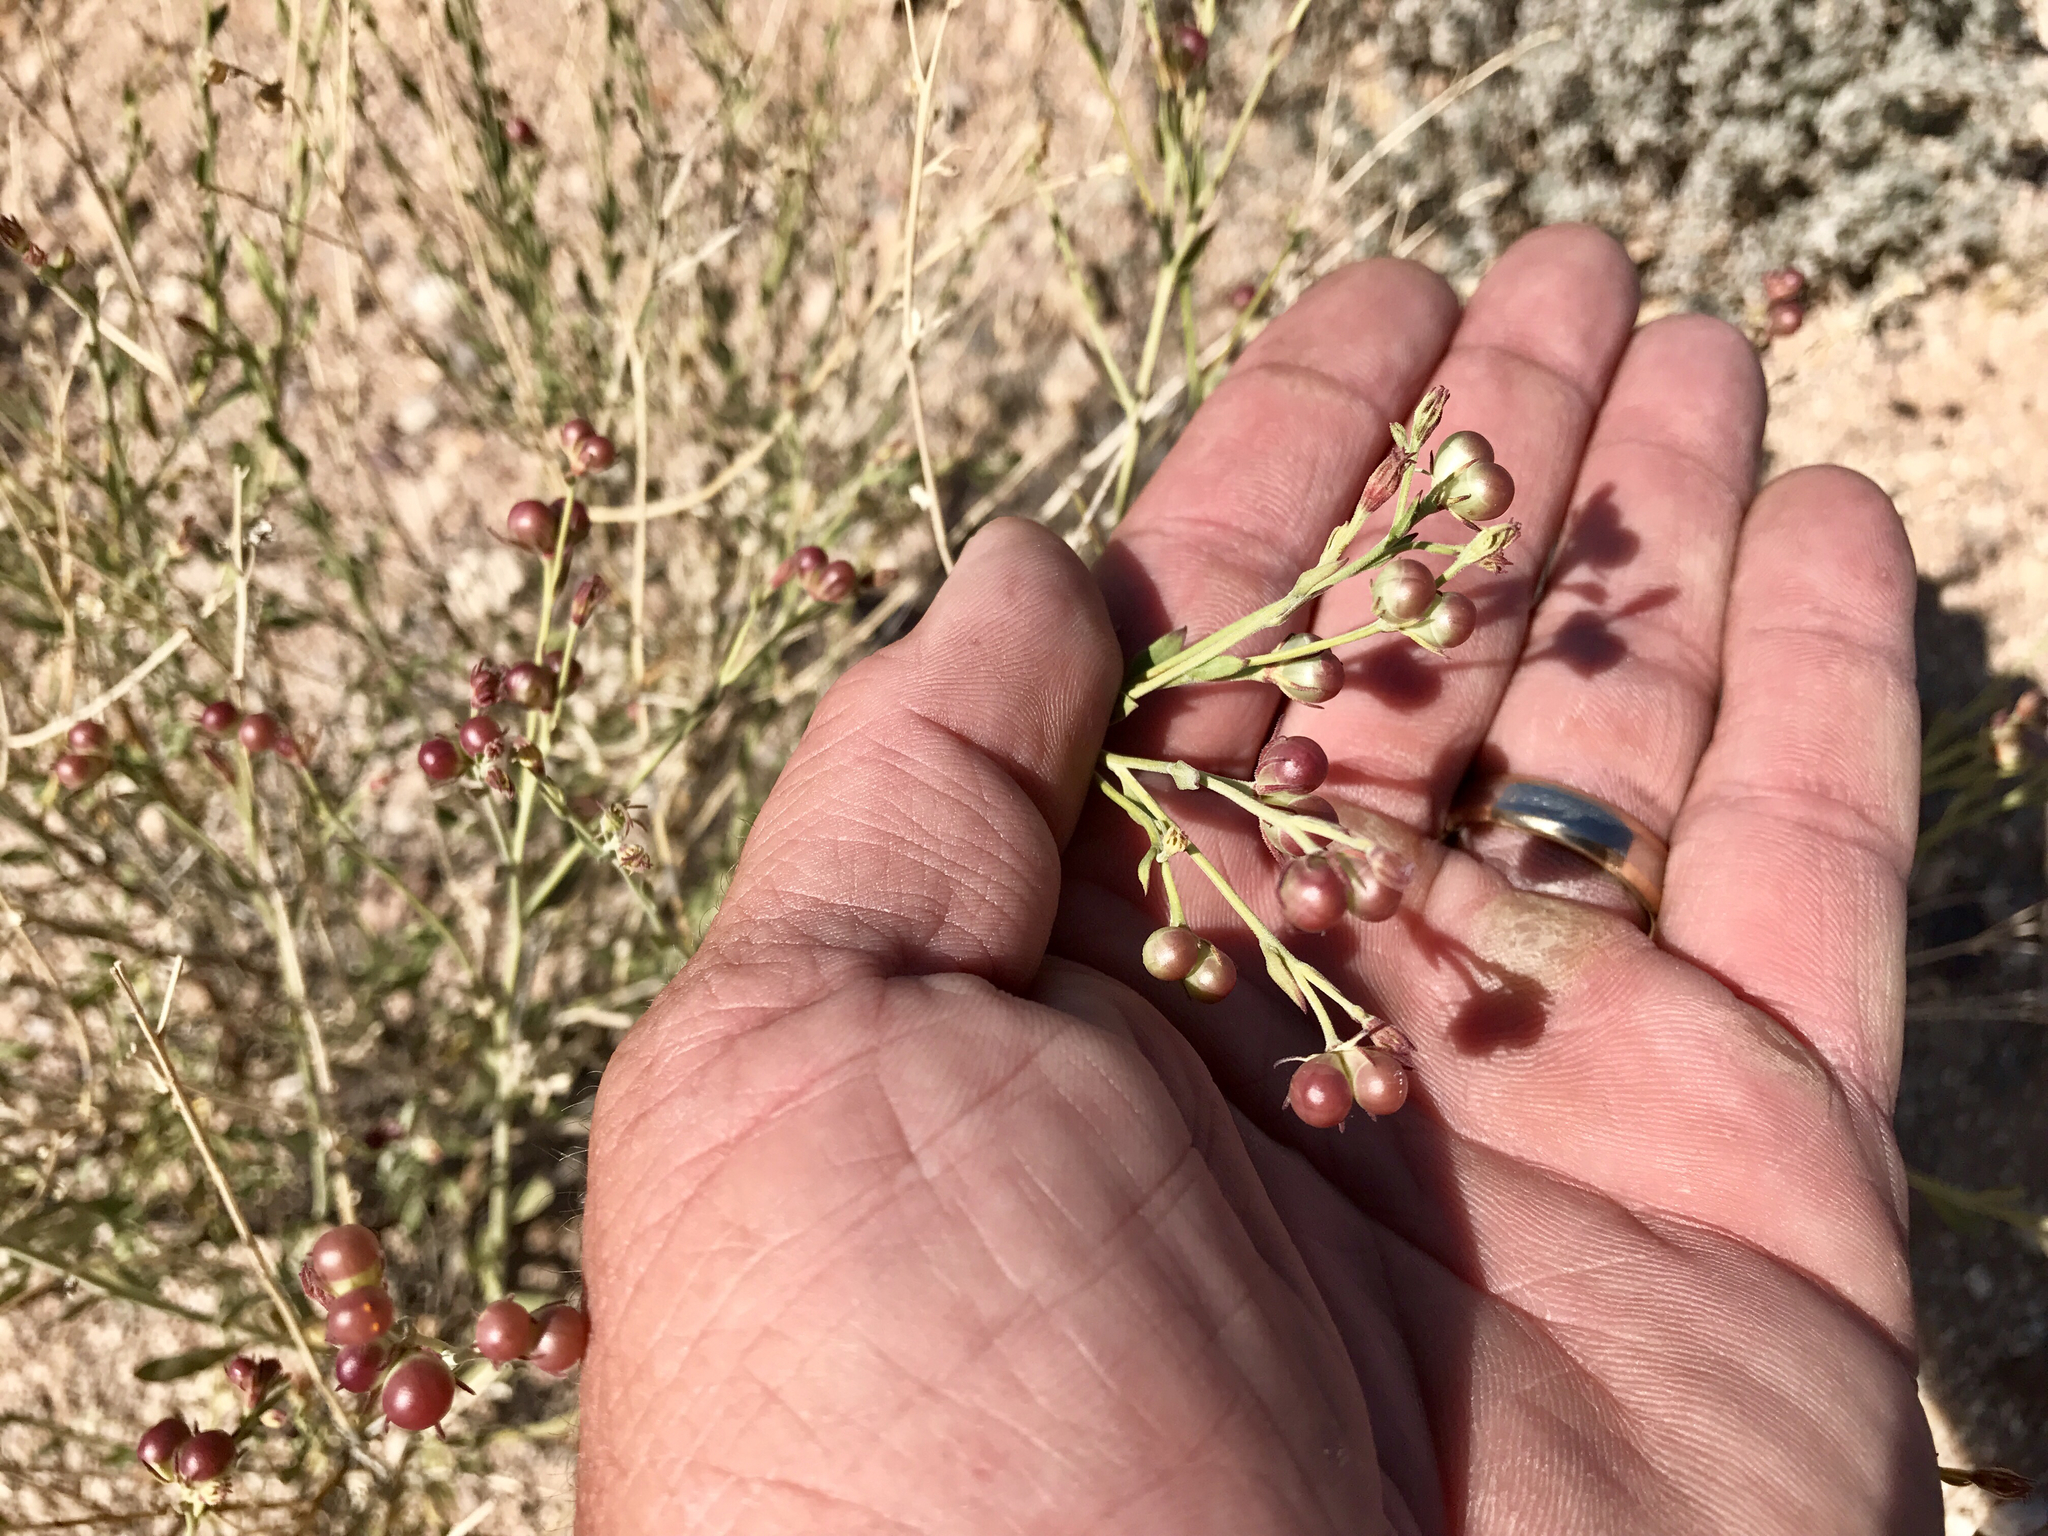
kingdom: Plantae
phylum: Tracheophyta
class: Magnoliopsida
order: Lamiales
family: Oleaceae
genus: Menodora
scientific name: Menodora scabra
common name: Rough menodora
